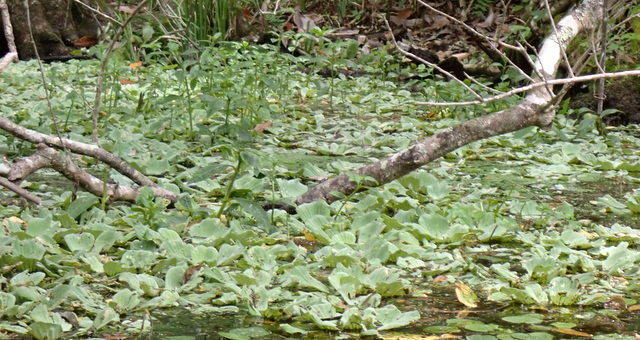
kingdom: Plantae
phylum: Tracheophyta
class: Liliopsida
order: Alismatales
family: Araceae
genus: Pistia
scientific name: Pistia stratiotes
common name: Water lettuce
